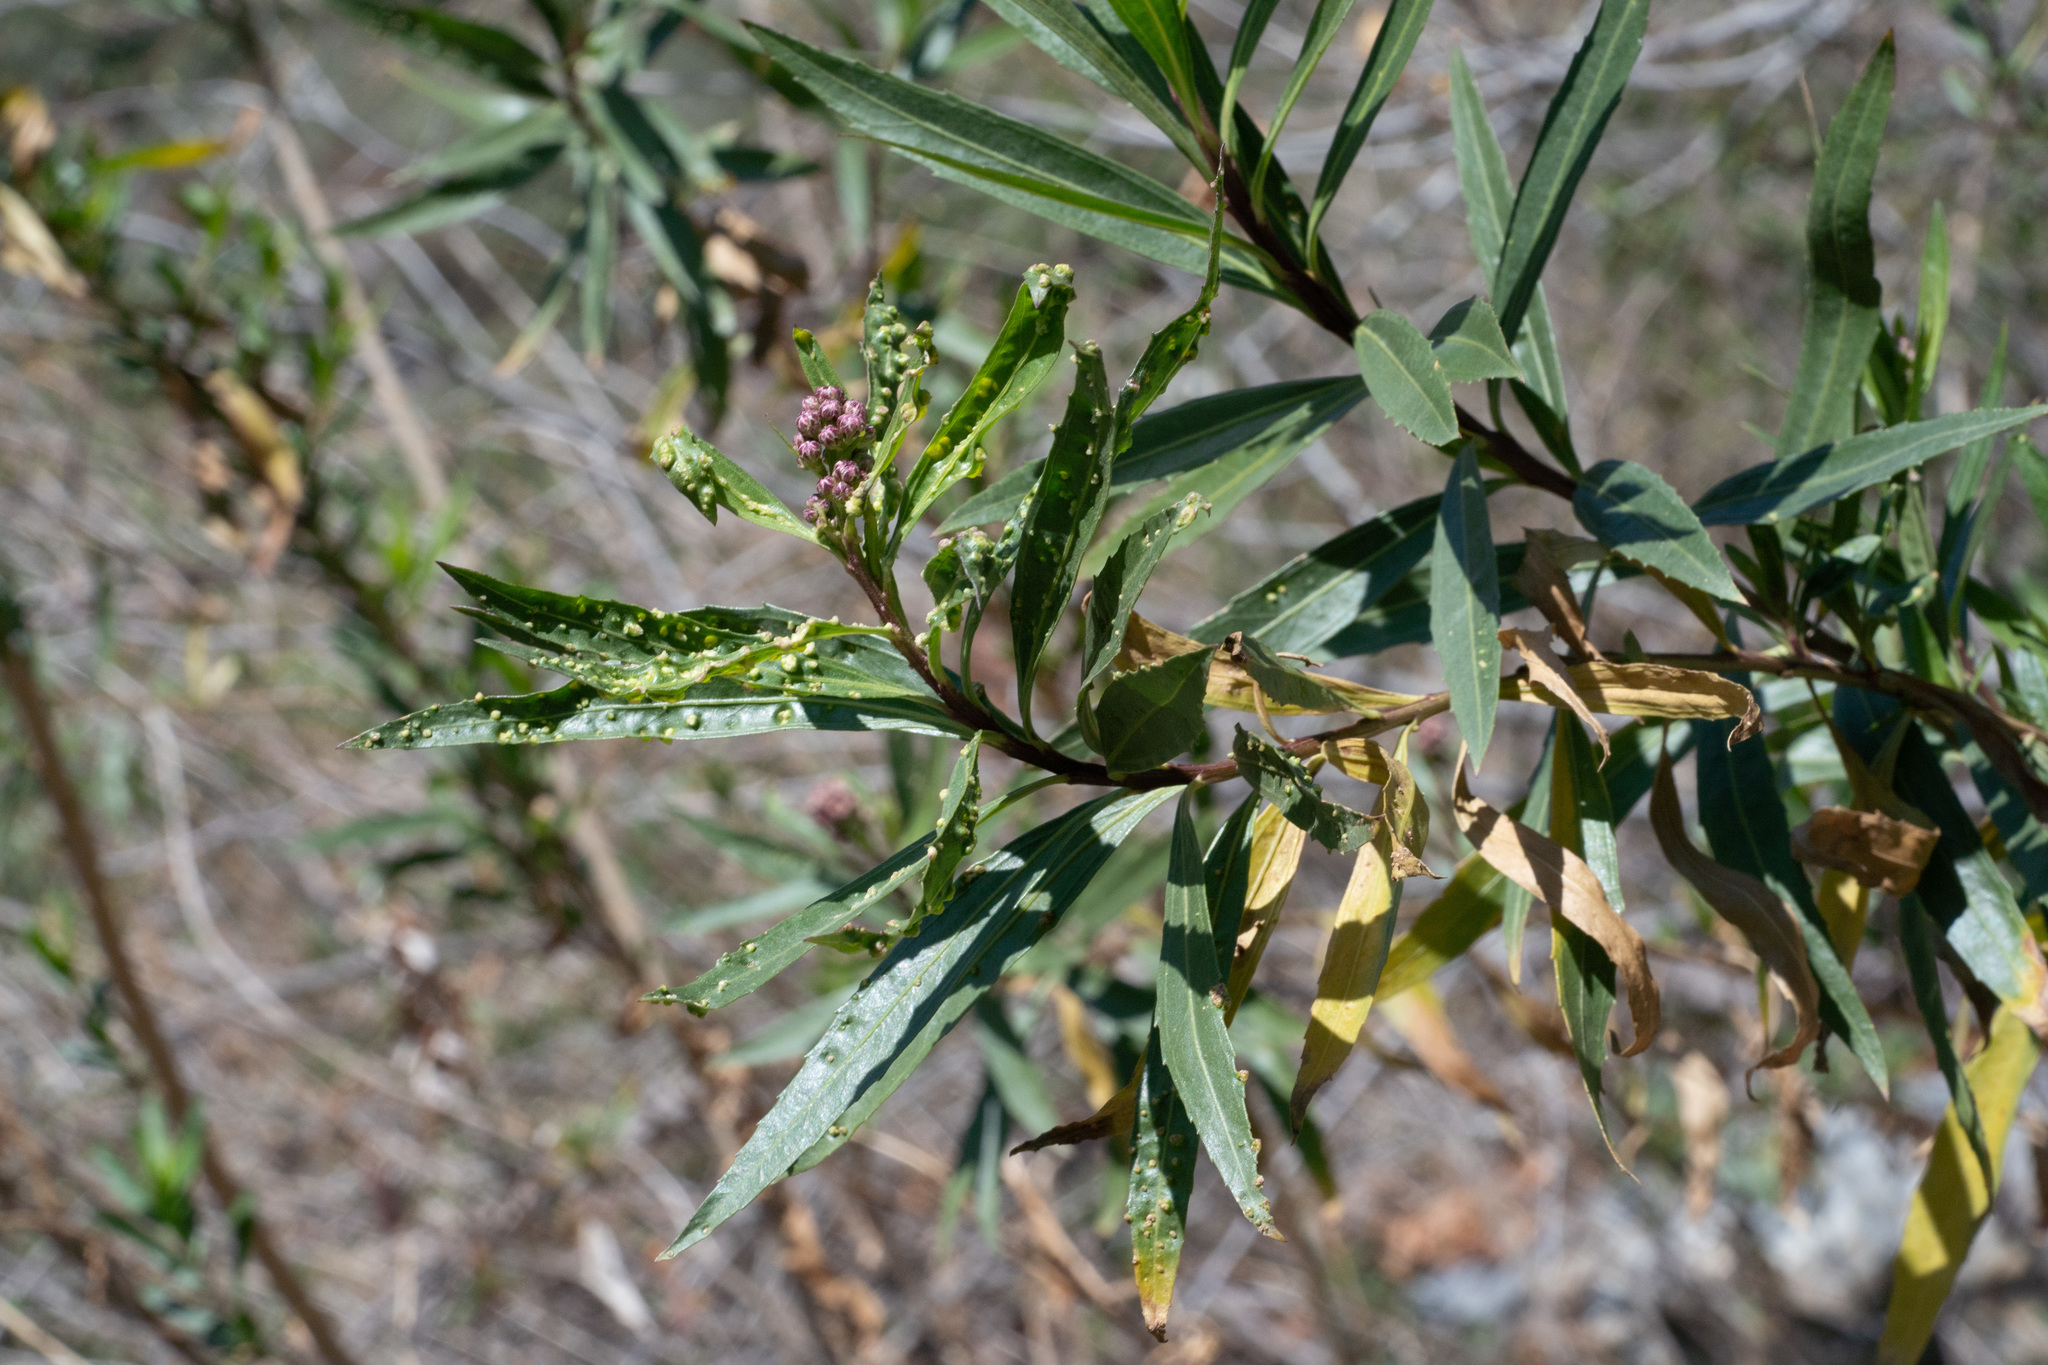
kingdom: Animalia
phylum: Arthropoda
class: Arachnida
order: Trombidiformes
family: Eriophyidae
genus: Aceria
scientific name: Aceria
